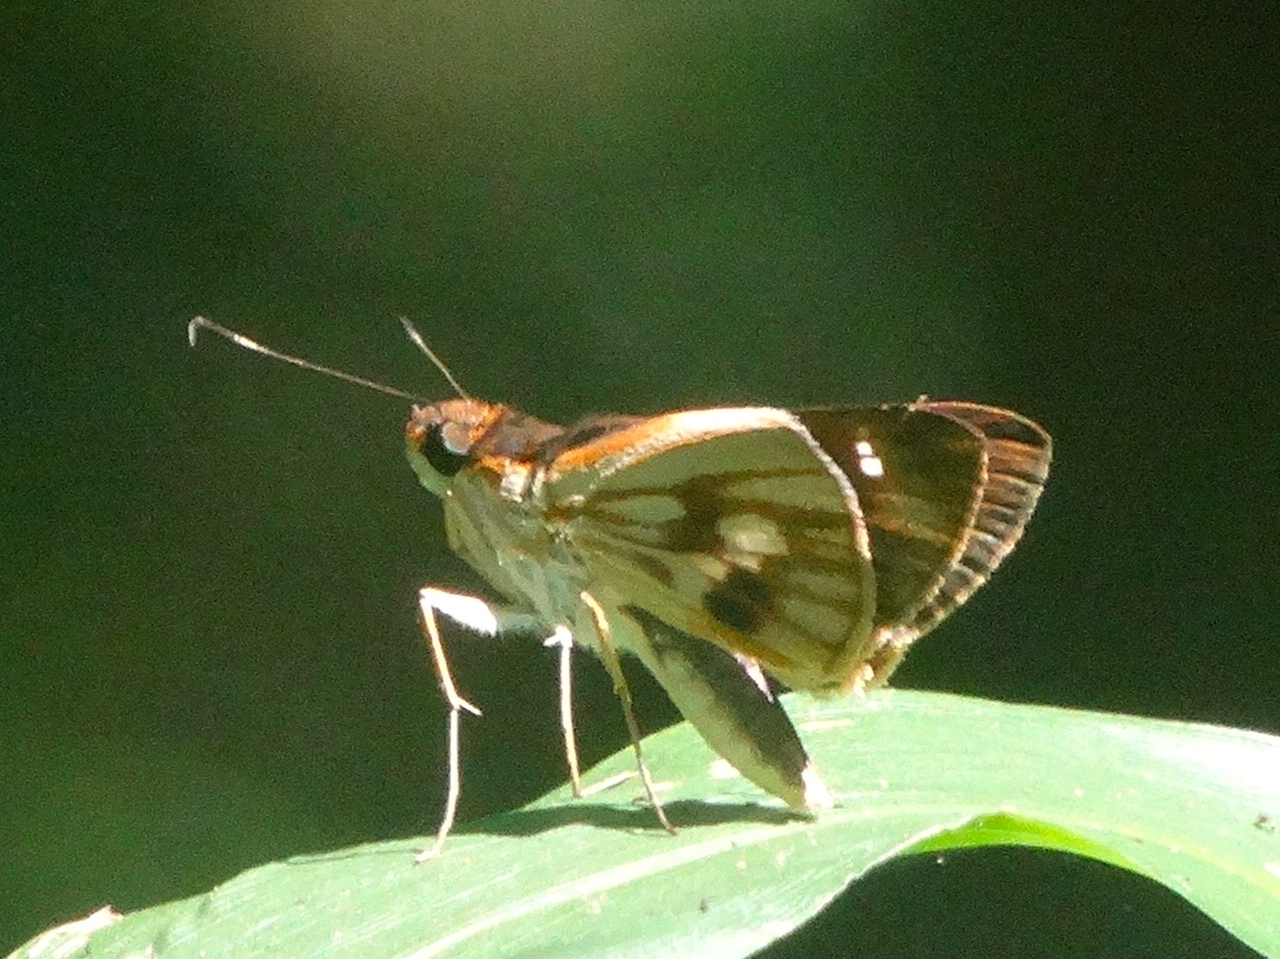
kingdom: Animalia
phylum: Arthropoda
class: Insecta
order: Lepidoptera
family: Hesperiidae
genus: Troyus
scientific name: Troyus fantasos
